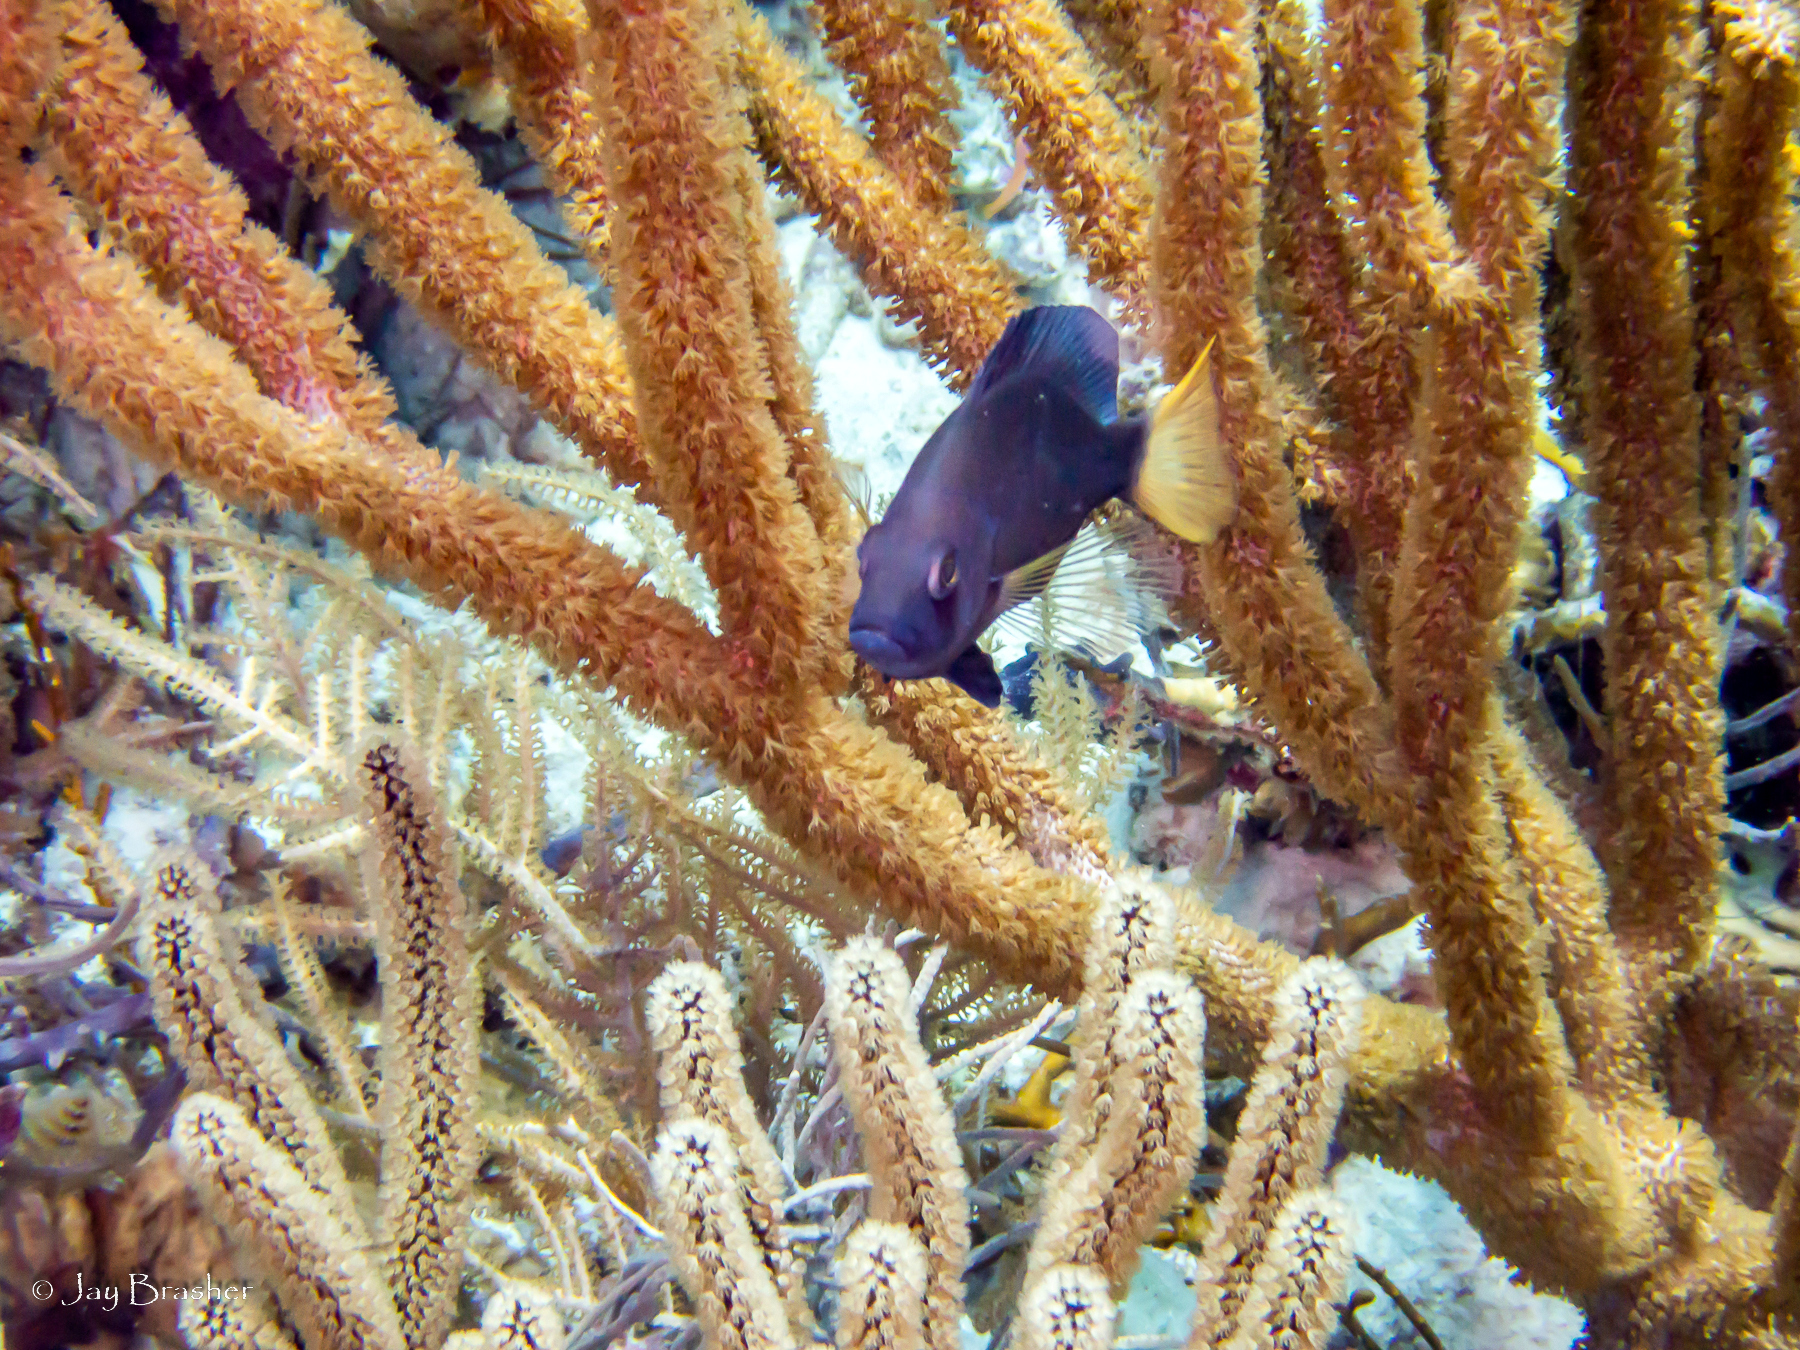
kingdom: Animalia
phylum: Chordata
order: Perciformes
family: Serranidae
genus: Hypoplectrus
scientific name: Hypoplectrus chlorurus
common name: Yellowtail hamlet
